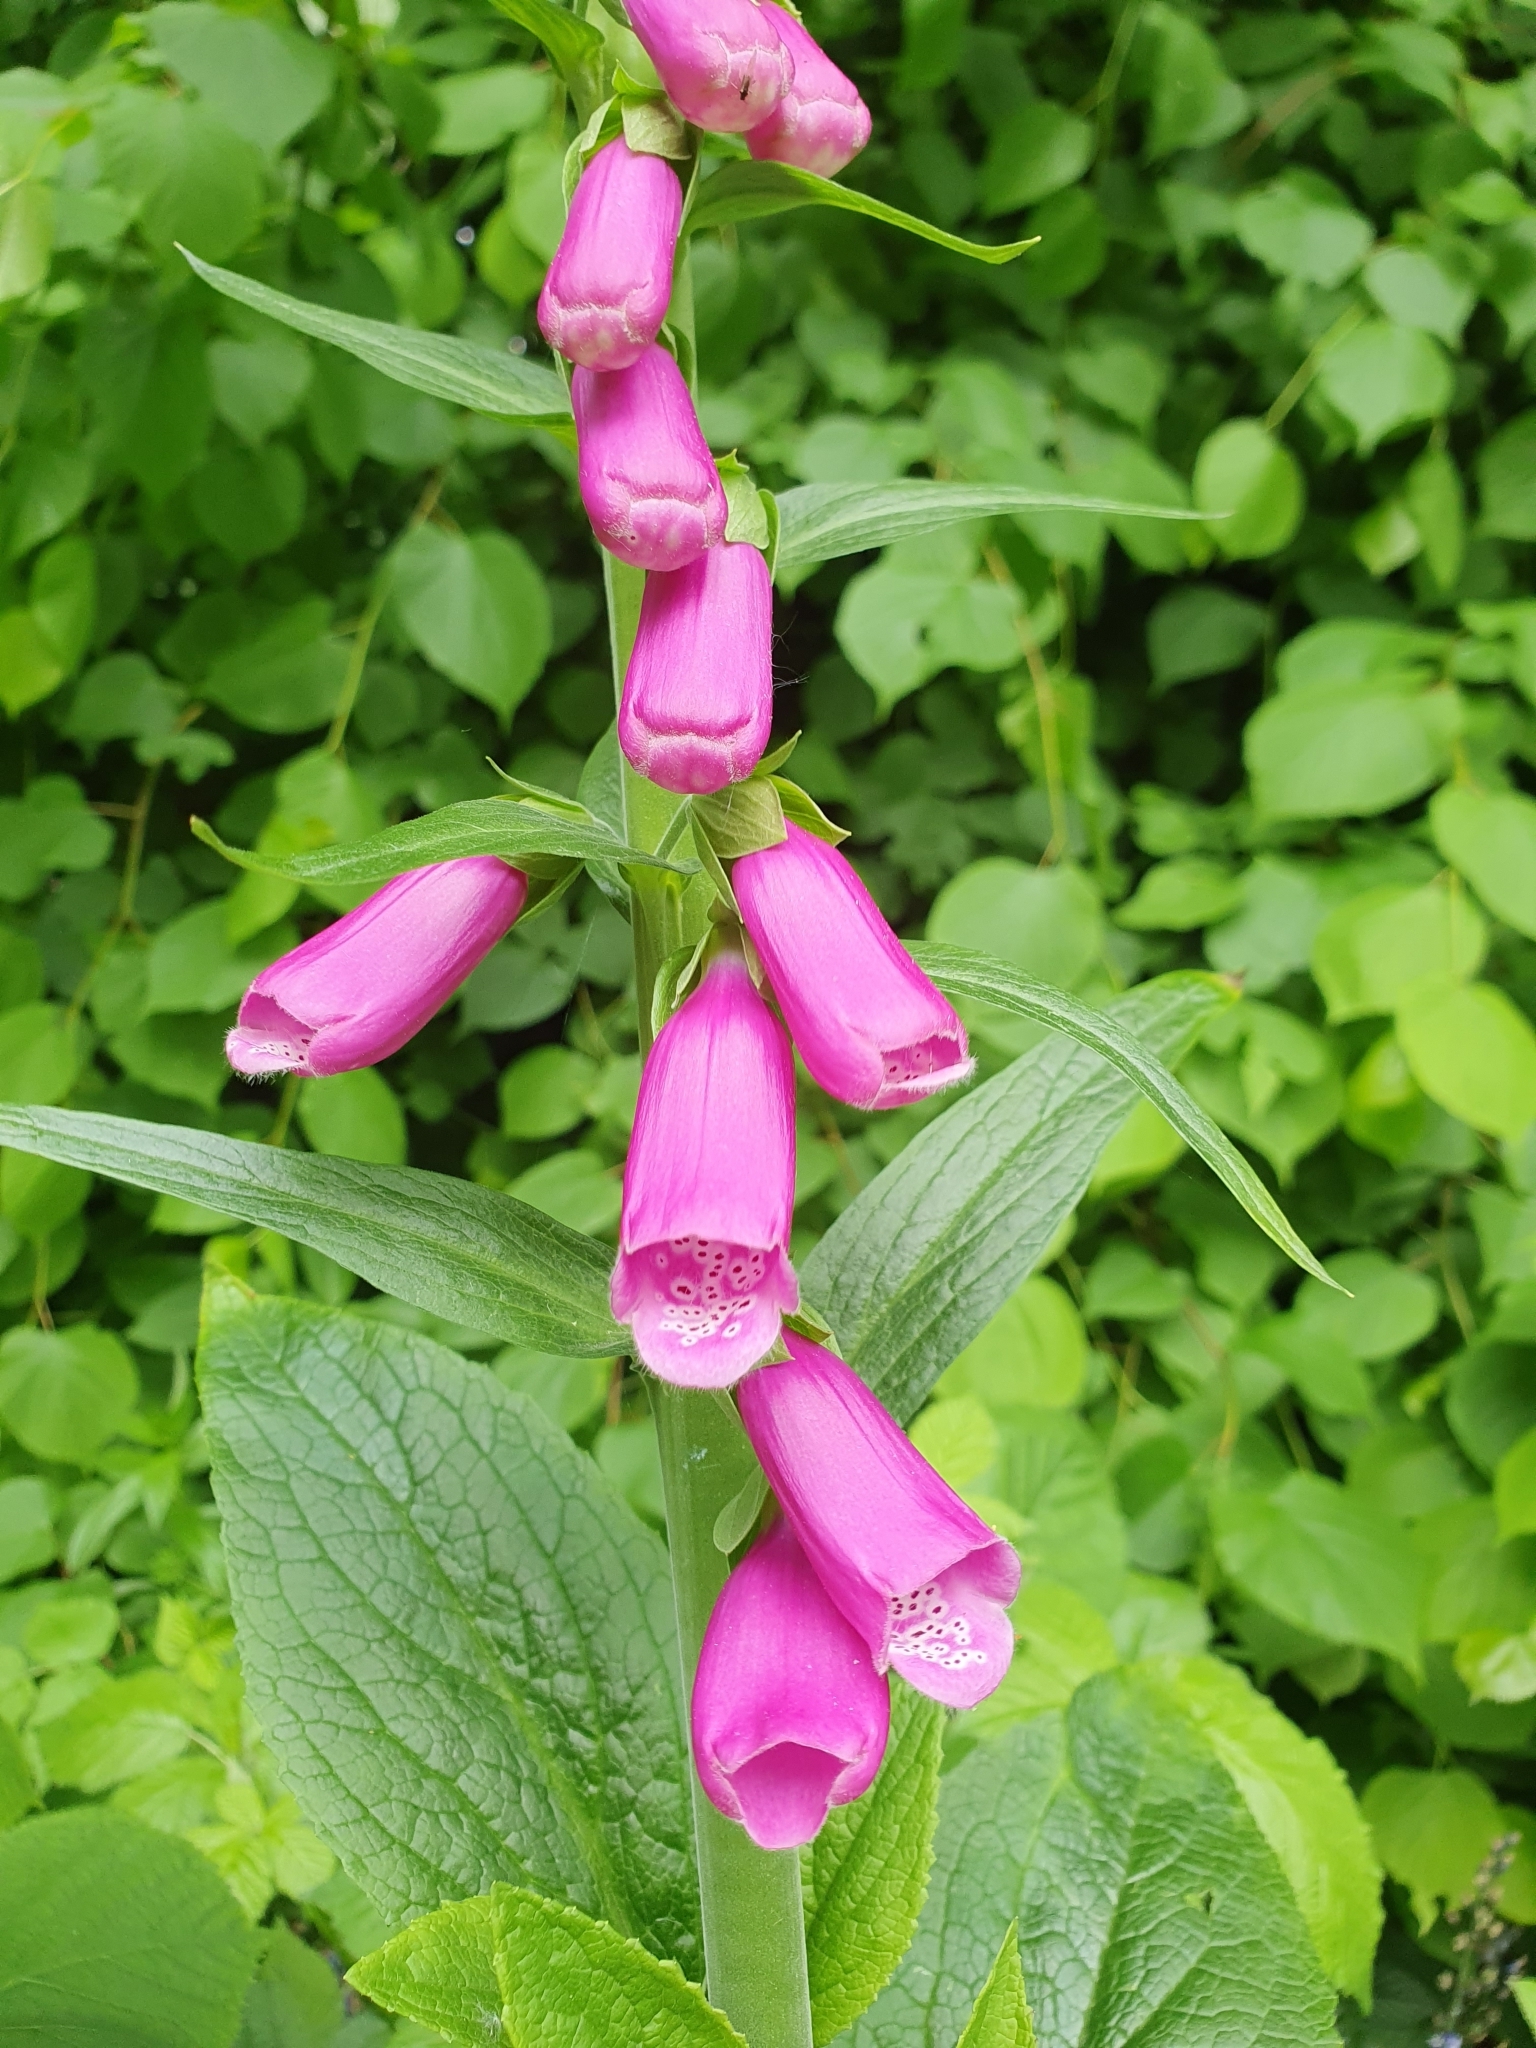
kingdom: Plantae
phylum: Tracheophyta
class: Magnoliopsida
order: Lamiales
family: Plantaginaceae
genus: Digitalis
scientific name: Digitalis purpurea
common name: Foxglove
